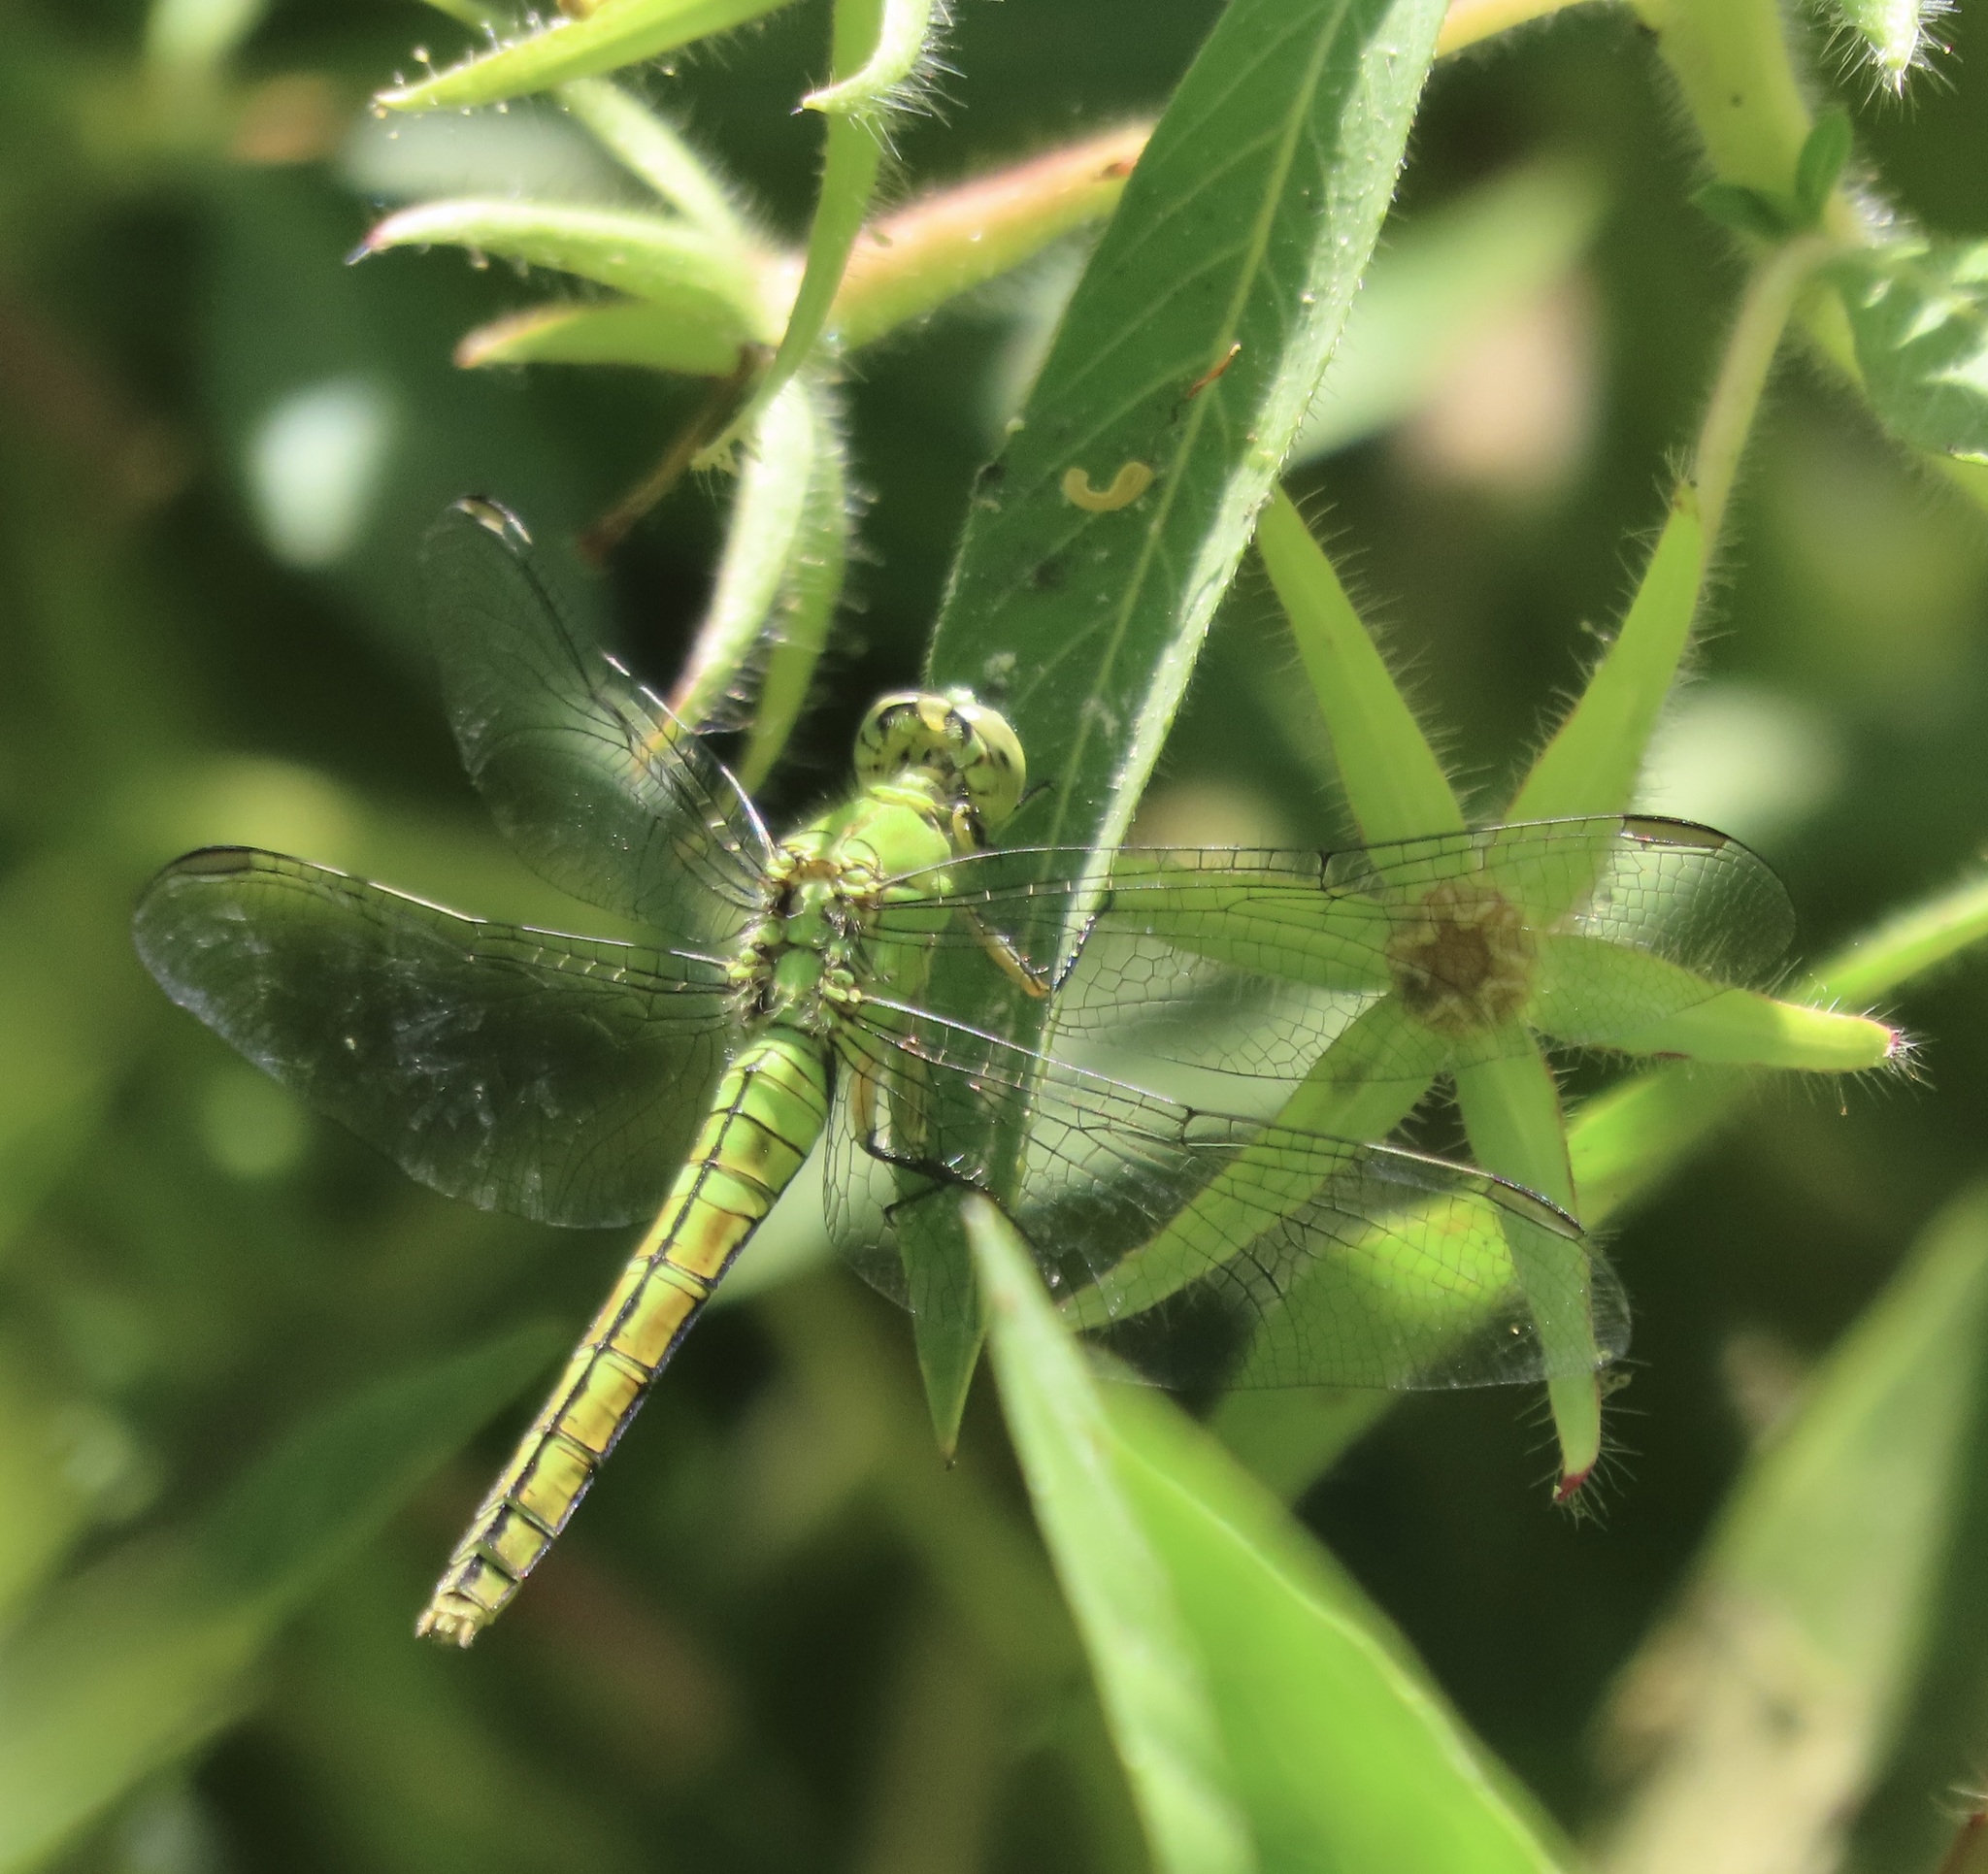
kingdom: Animalia
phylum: Arthropoda
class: Insecta
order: Odonata
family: Libellulidae
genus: Erythemis
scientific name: Erythemis collocata
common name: Western pondhawk
